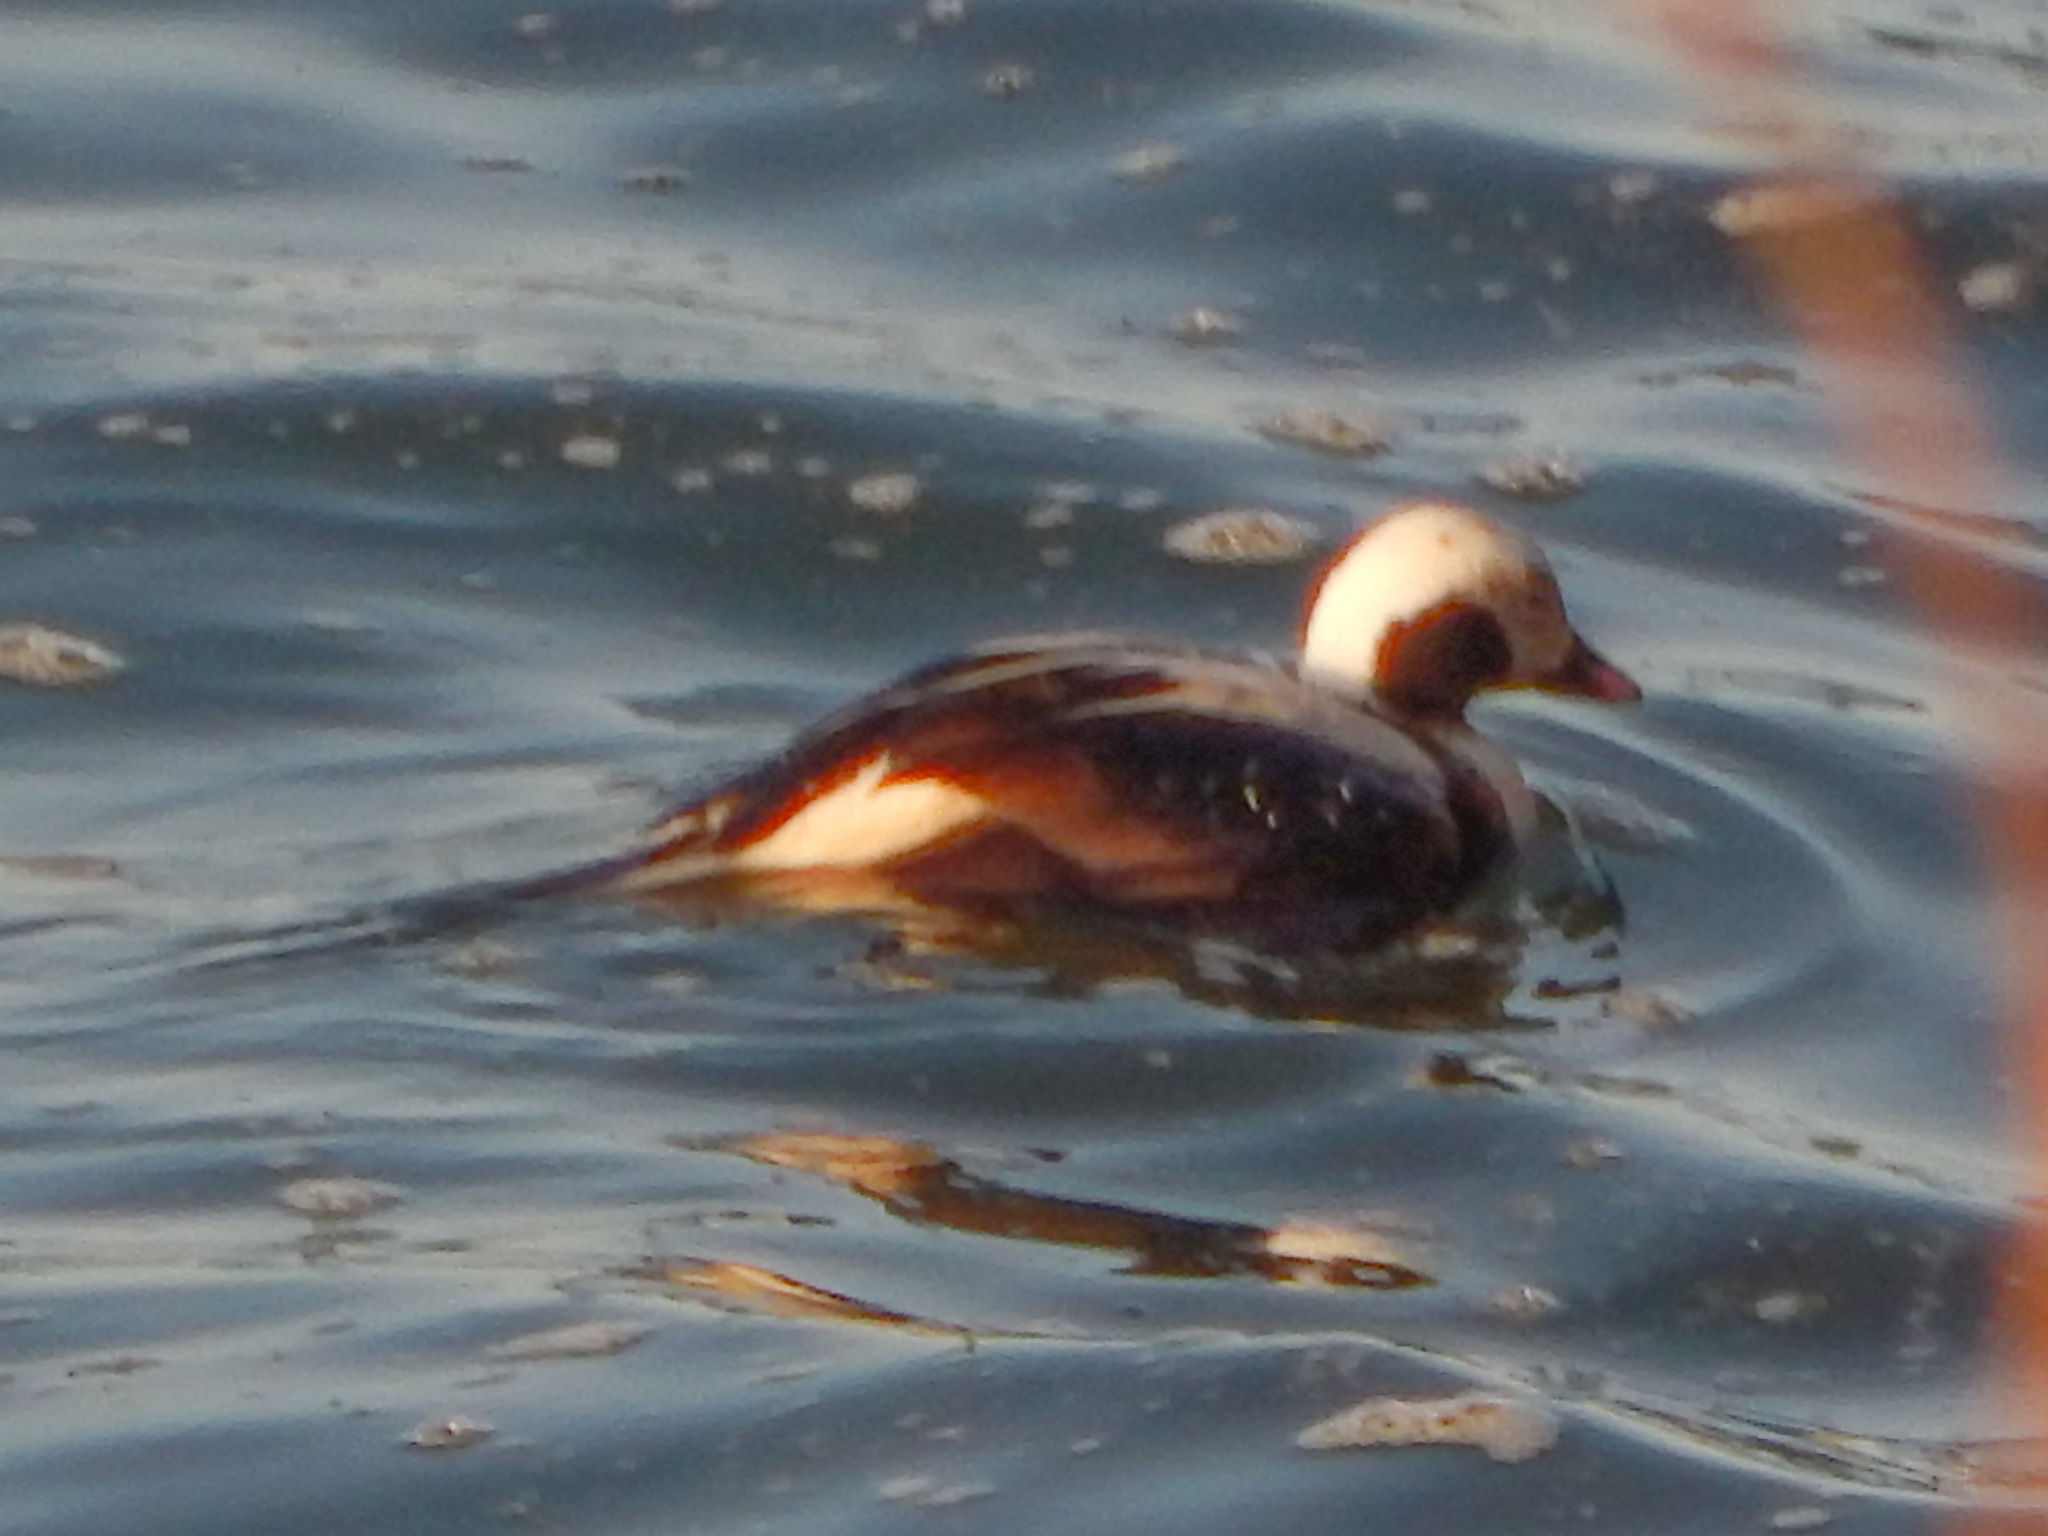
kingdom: Animalia
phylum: Chordata
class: Aves
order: Anseriformes
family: Anatidae
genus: Clangula
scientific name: Clangula hyemalis
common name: Long-tailed duck
